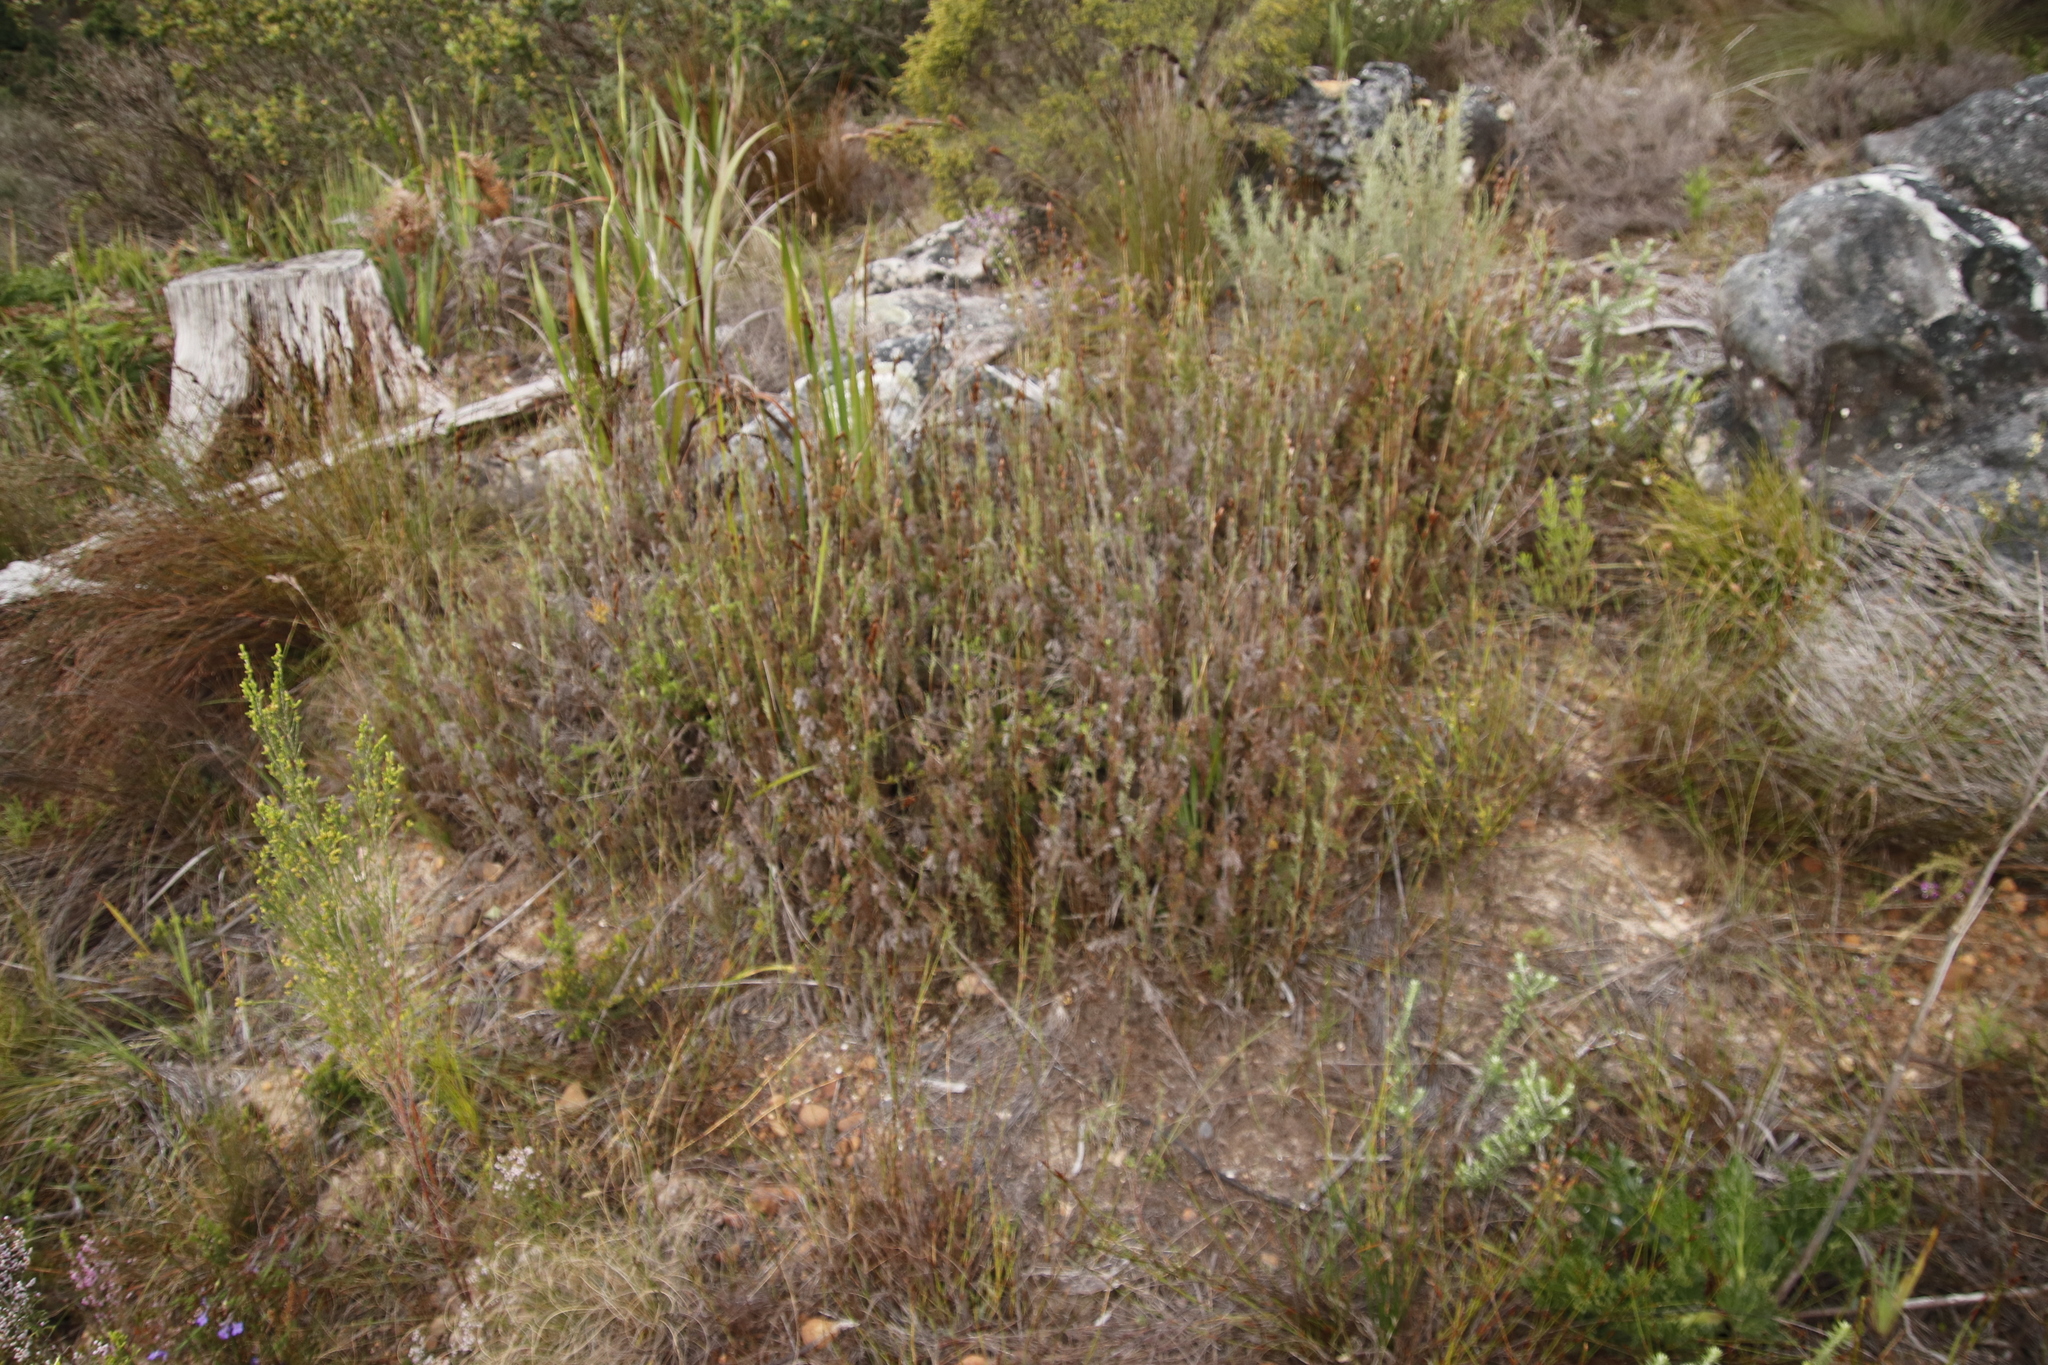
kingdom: Plantae
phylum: Tracheophyta
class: Liliopsida
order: Poales
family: Restionaceae
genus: Thamnochortus
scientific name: Thamnochortus fruticosus
